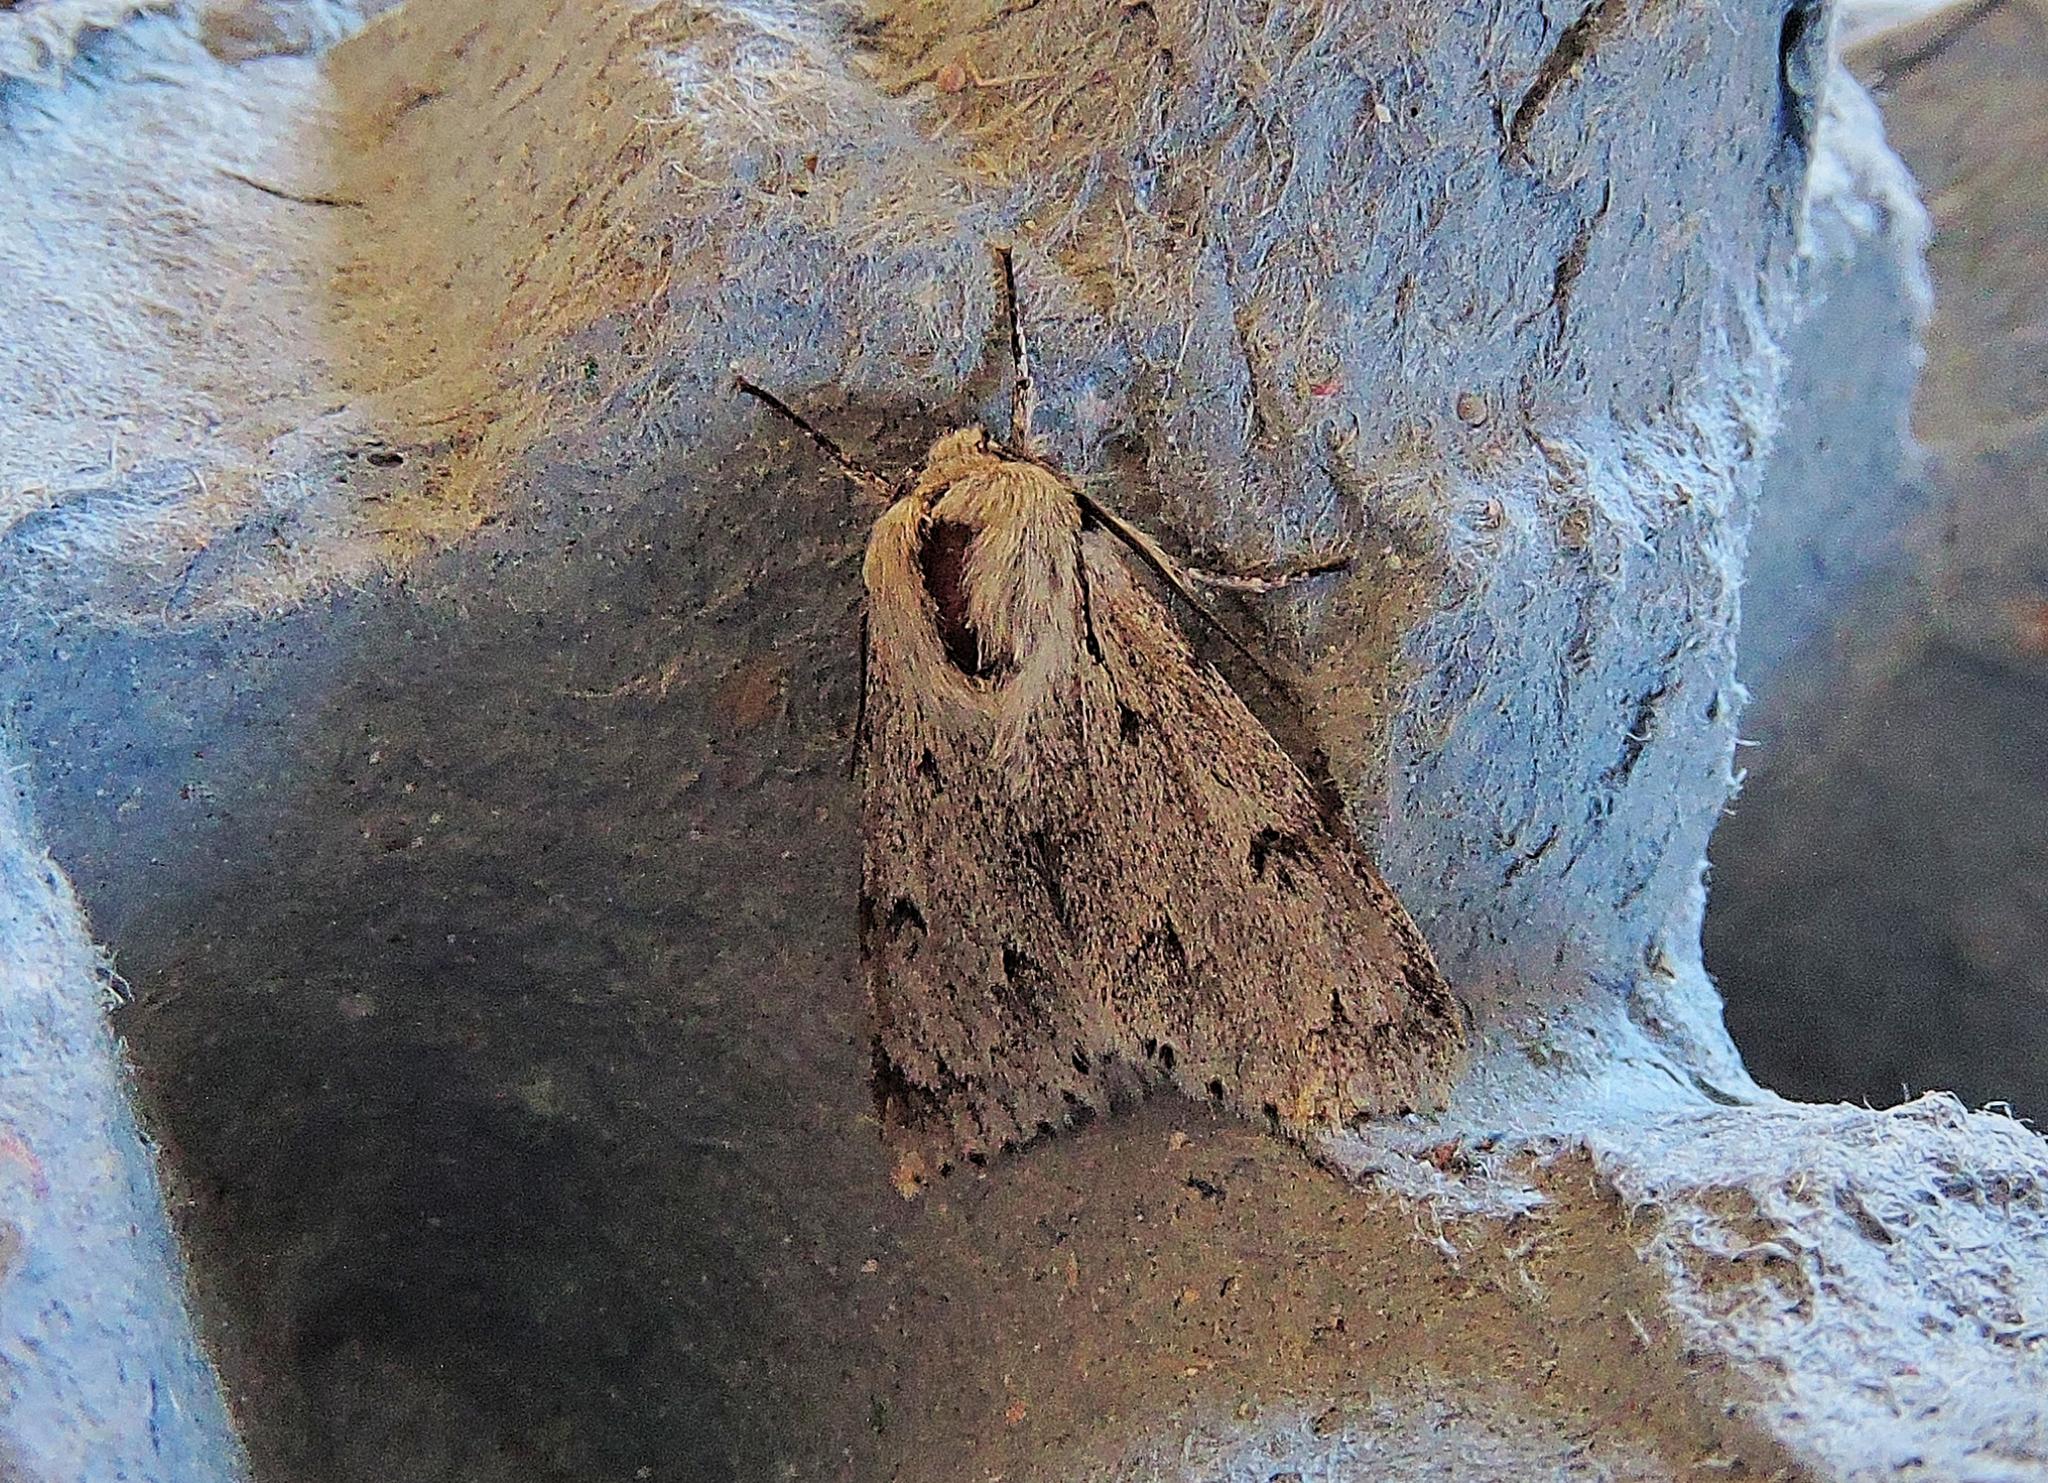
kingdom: Animalia
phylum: Arthropoda
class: Insecta
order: Lepidoptera
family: Noctuidae
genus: Acronicta
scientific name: Acronicta leporina
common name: Miller
